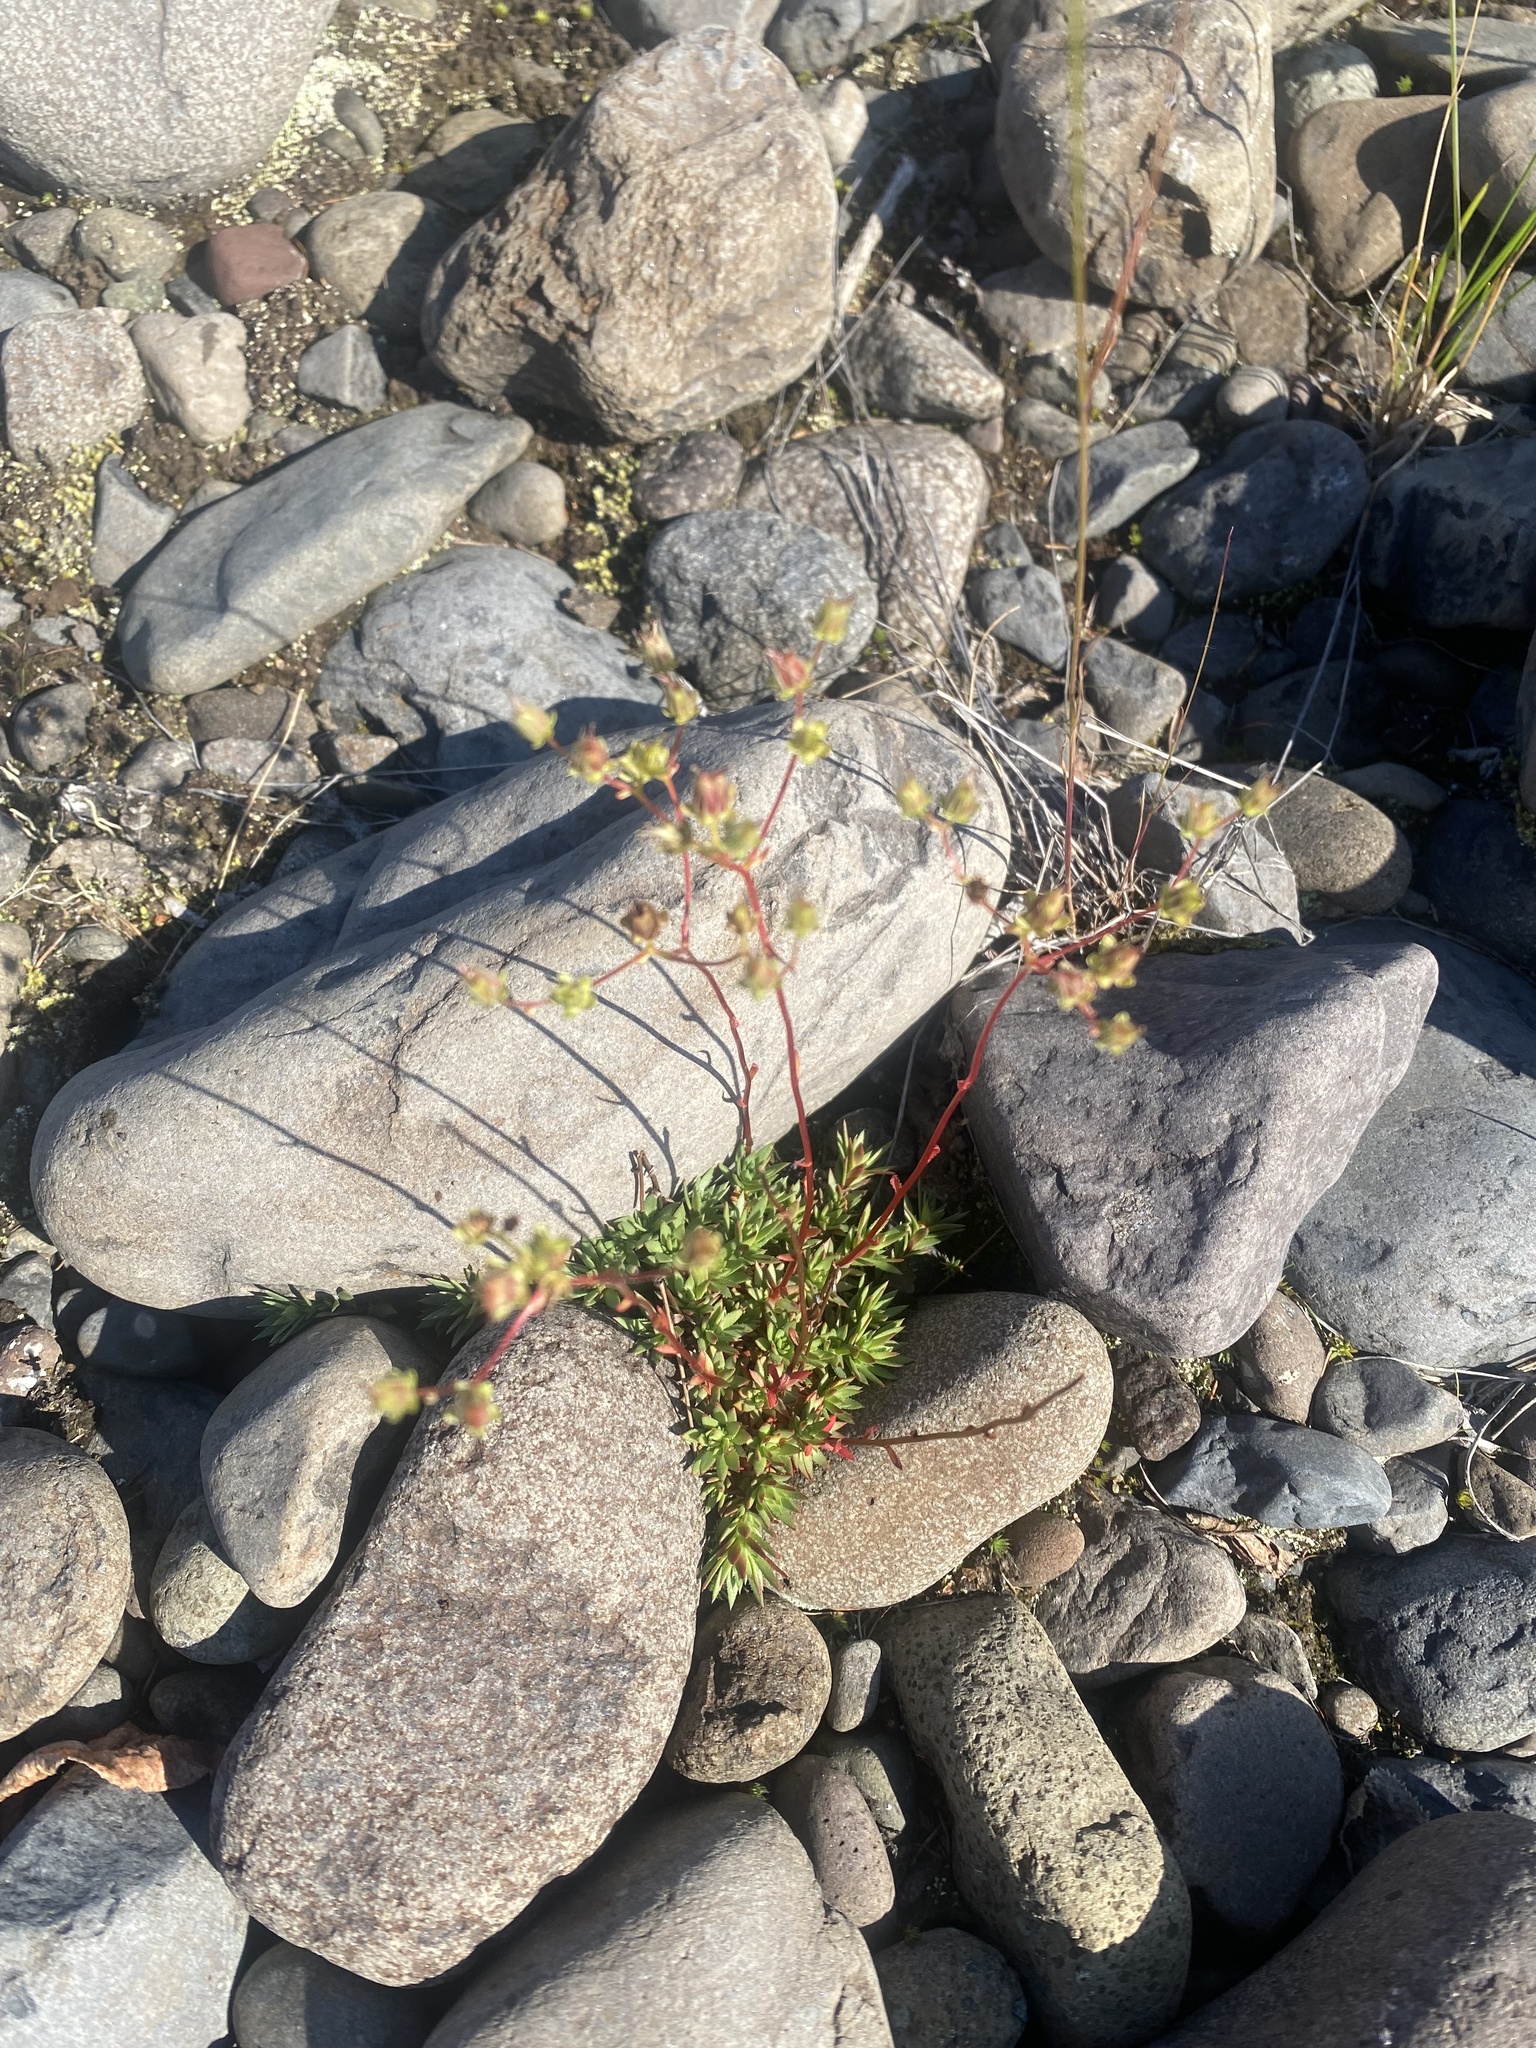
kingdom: Plantae
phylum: Tracheophyta
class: Magnoliopsida
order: Saxifragales
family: Saxifragaceae
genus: Saxifraga
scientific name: Saxifraga
